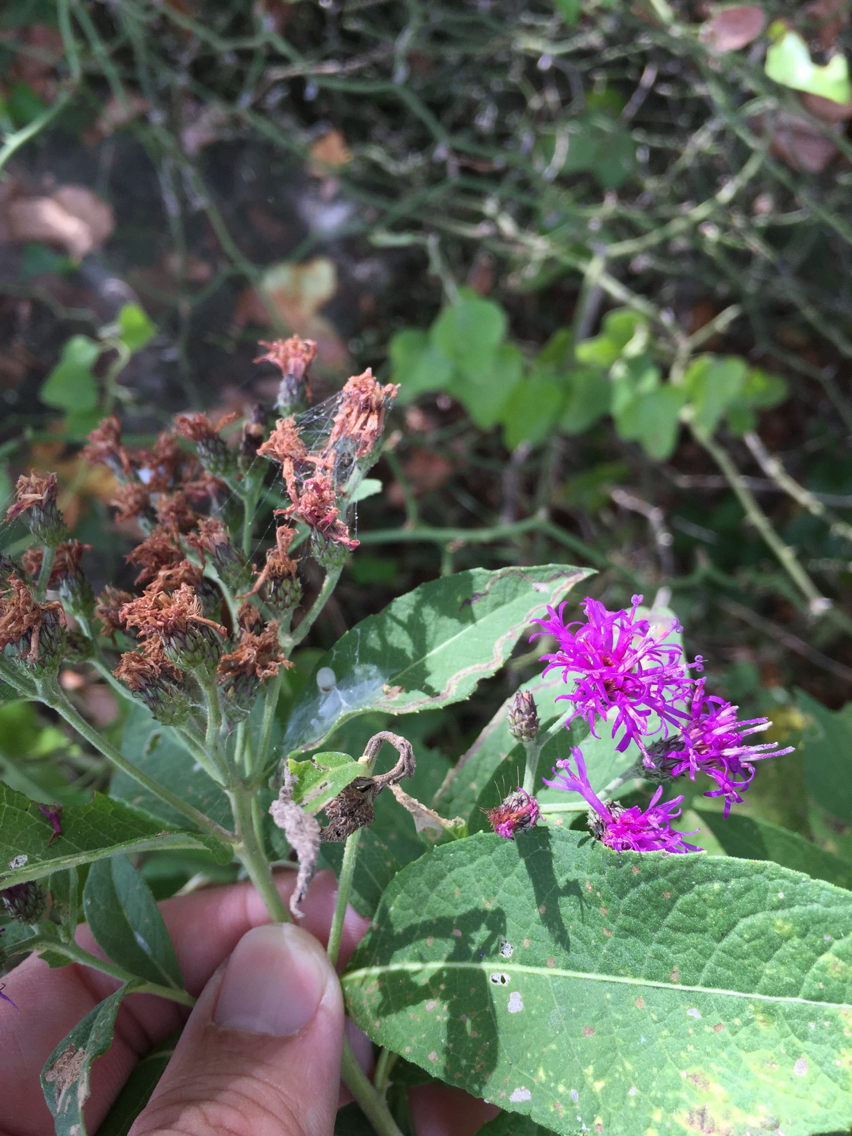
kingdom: Plantae
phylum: Tracheophyta
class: Magnoliopsida
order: Asterales
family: Asteraceae
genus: Vernonia
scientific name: Vernonia baldwinii
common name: Western ironweed
